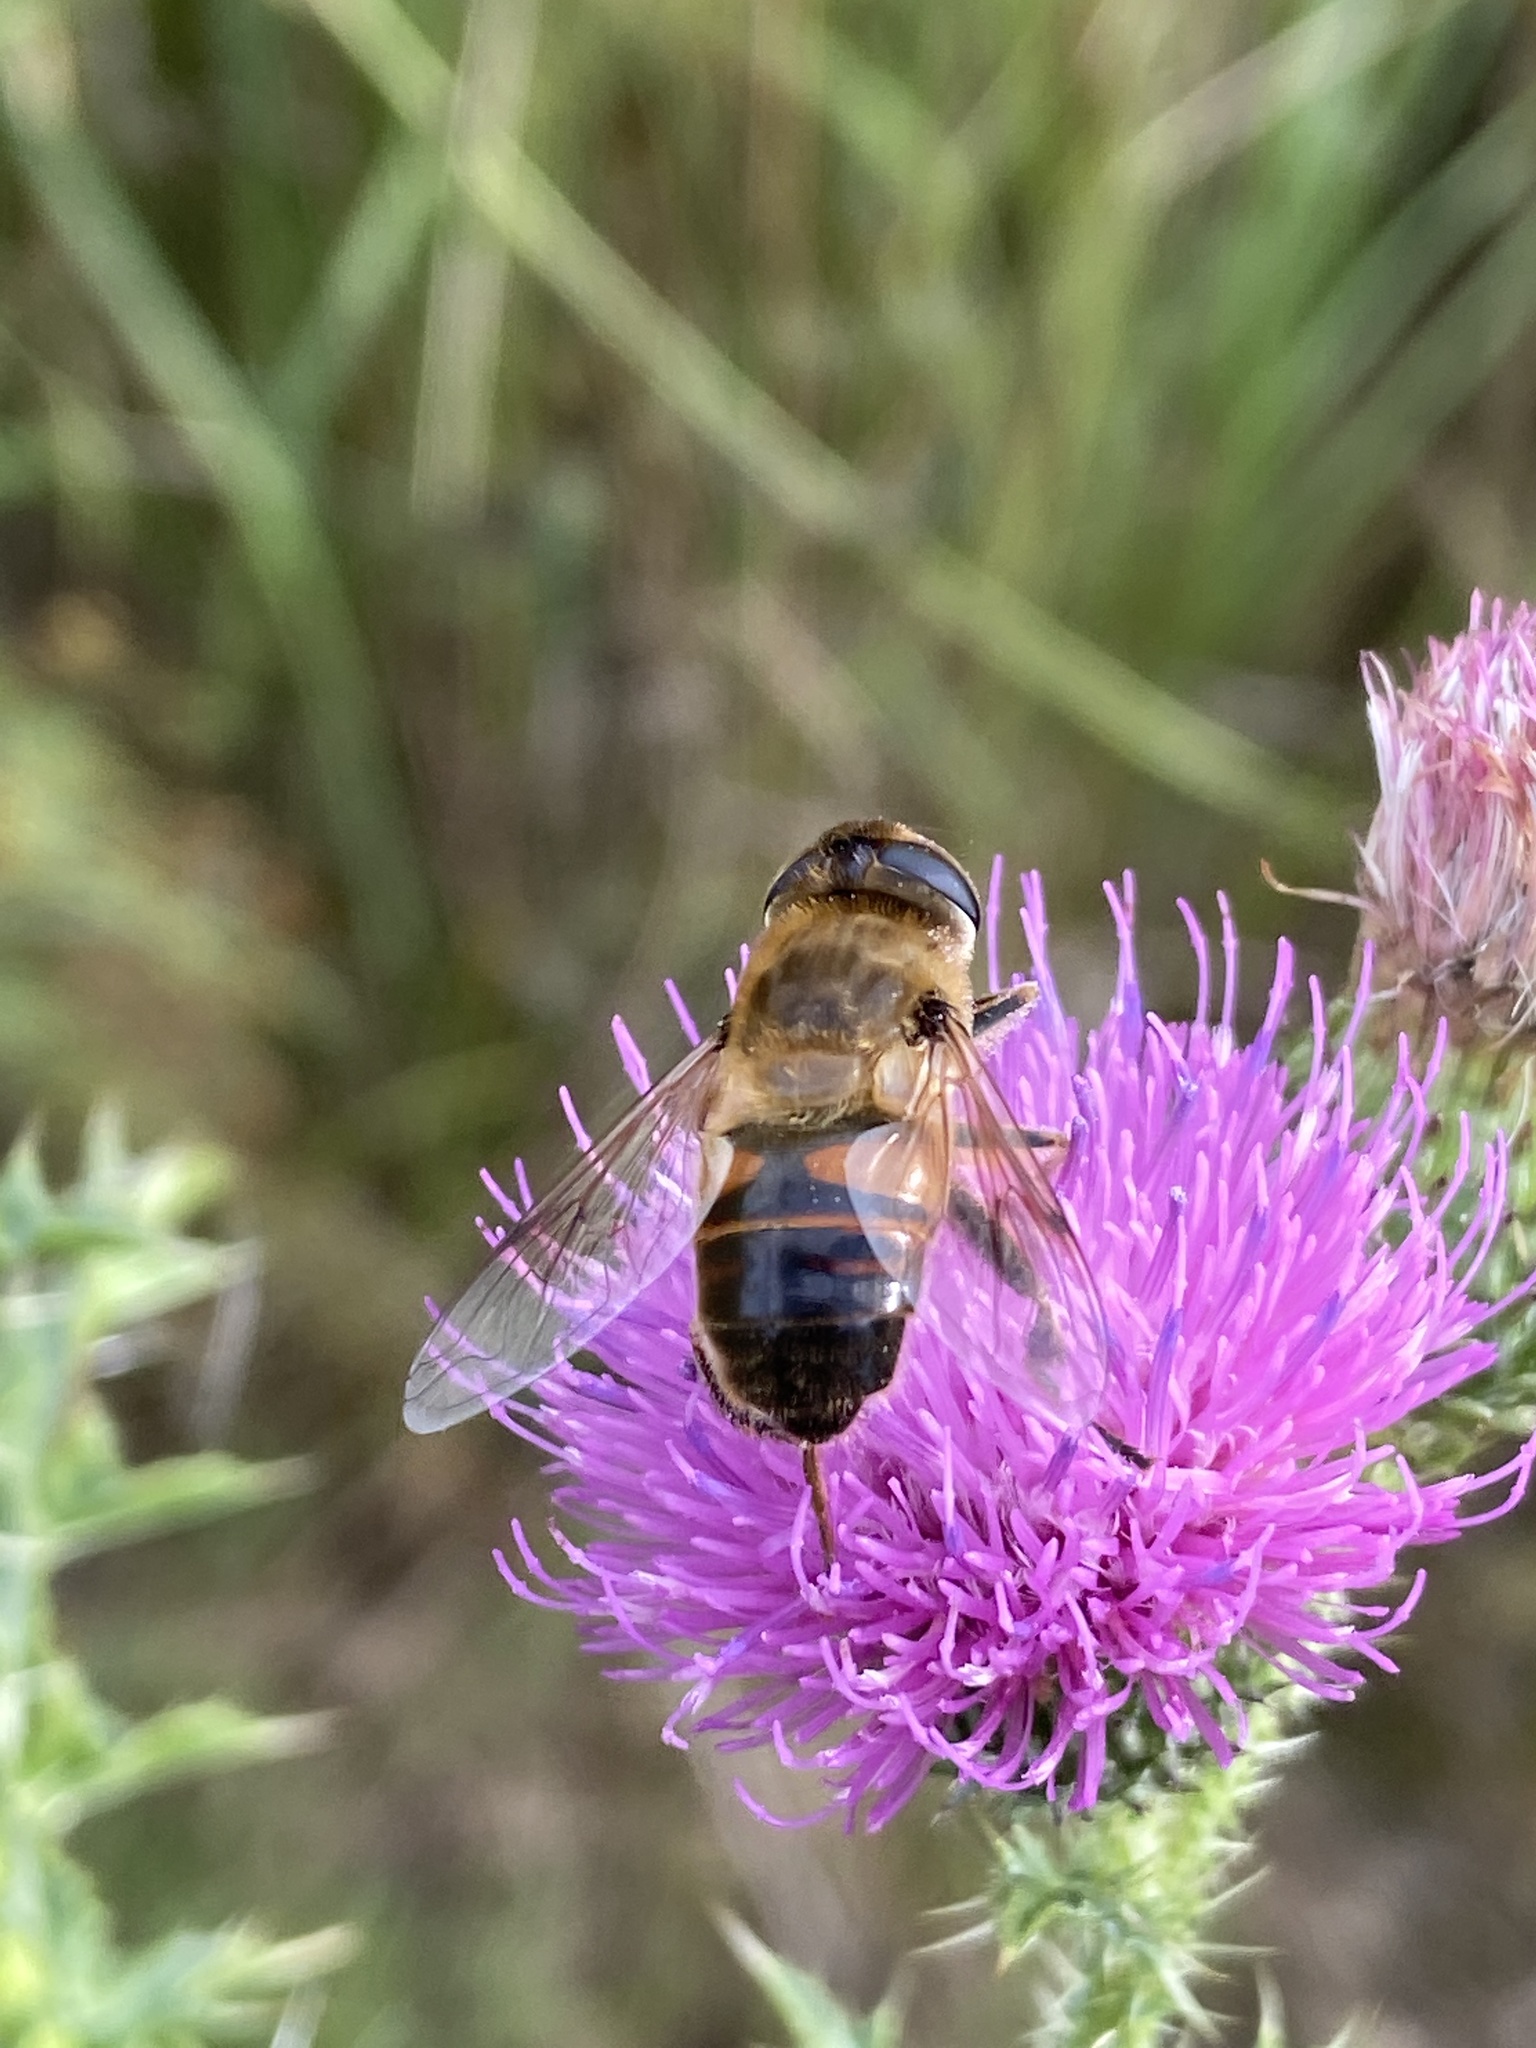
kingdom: Animalia
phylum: Arthropoda
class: Insecta
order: Diptera
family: Syrphidae
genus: Eristalis
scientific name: Eristalis tenax
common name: Drone fly
